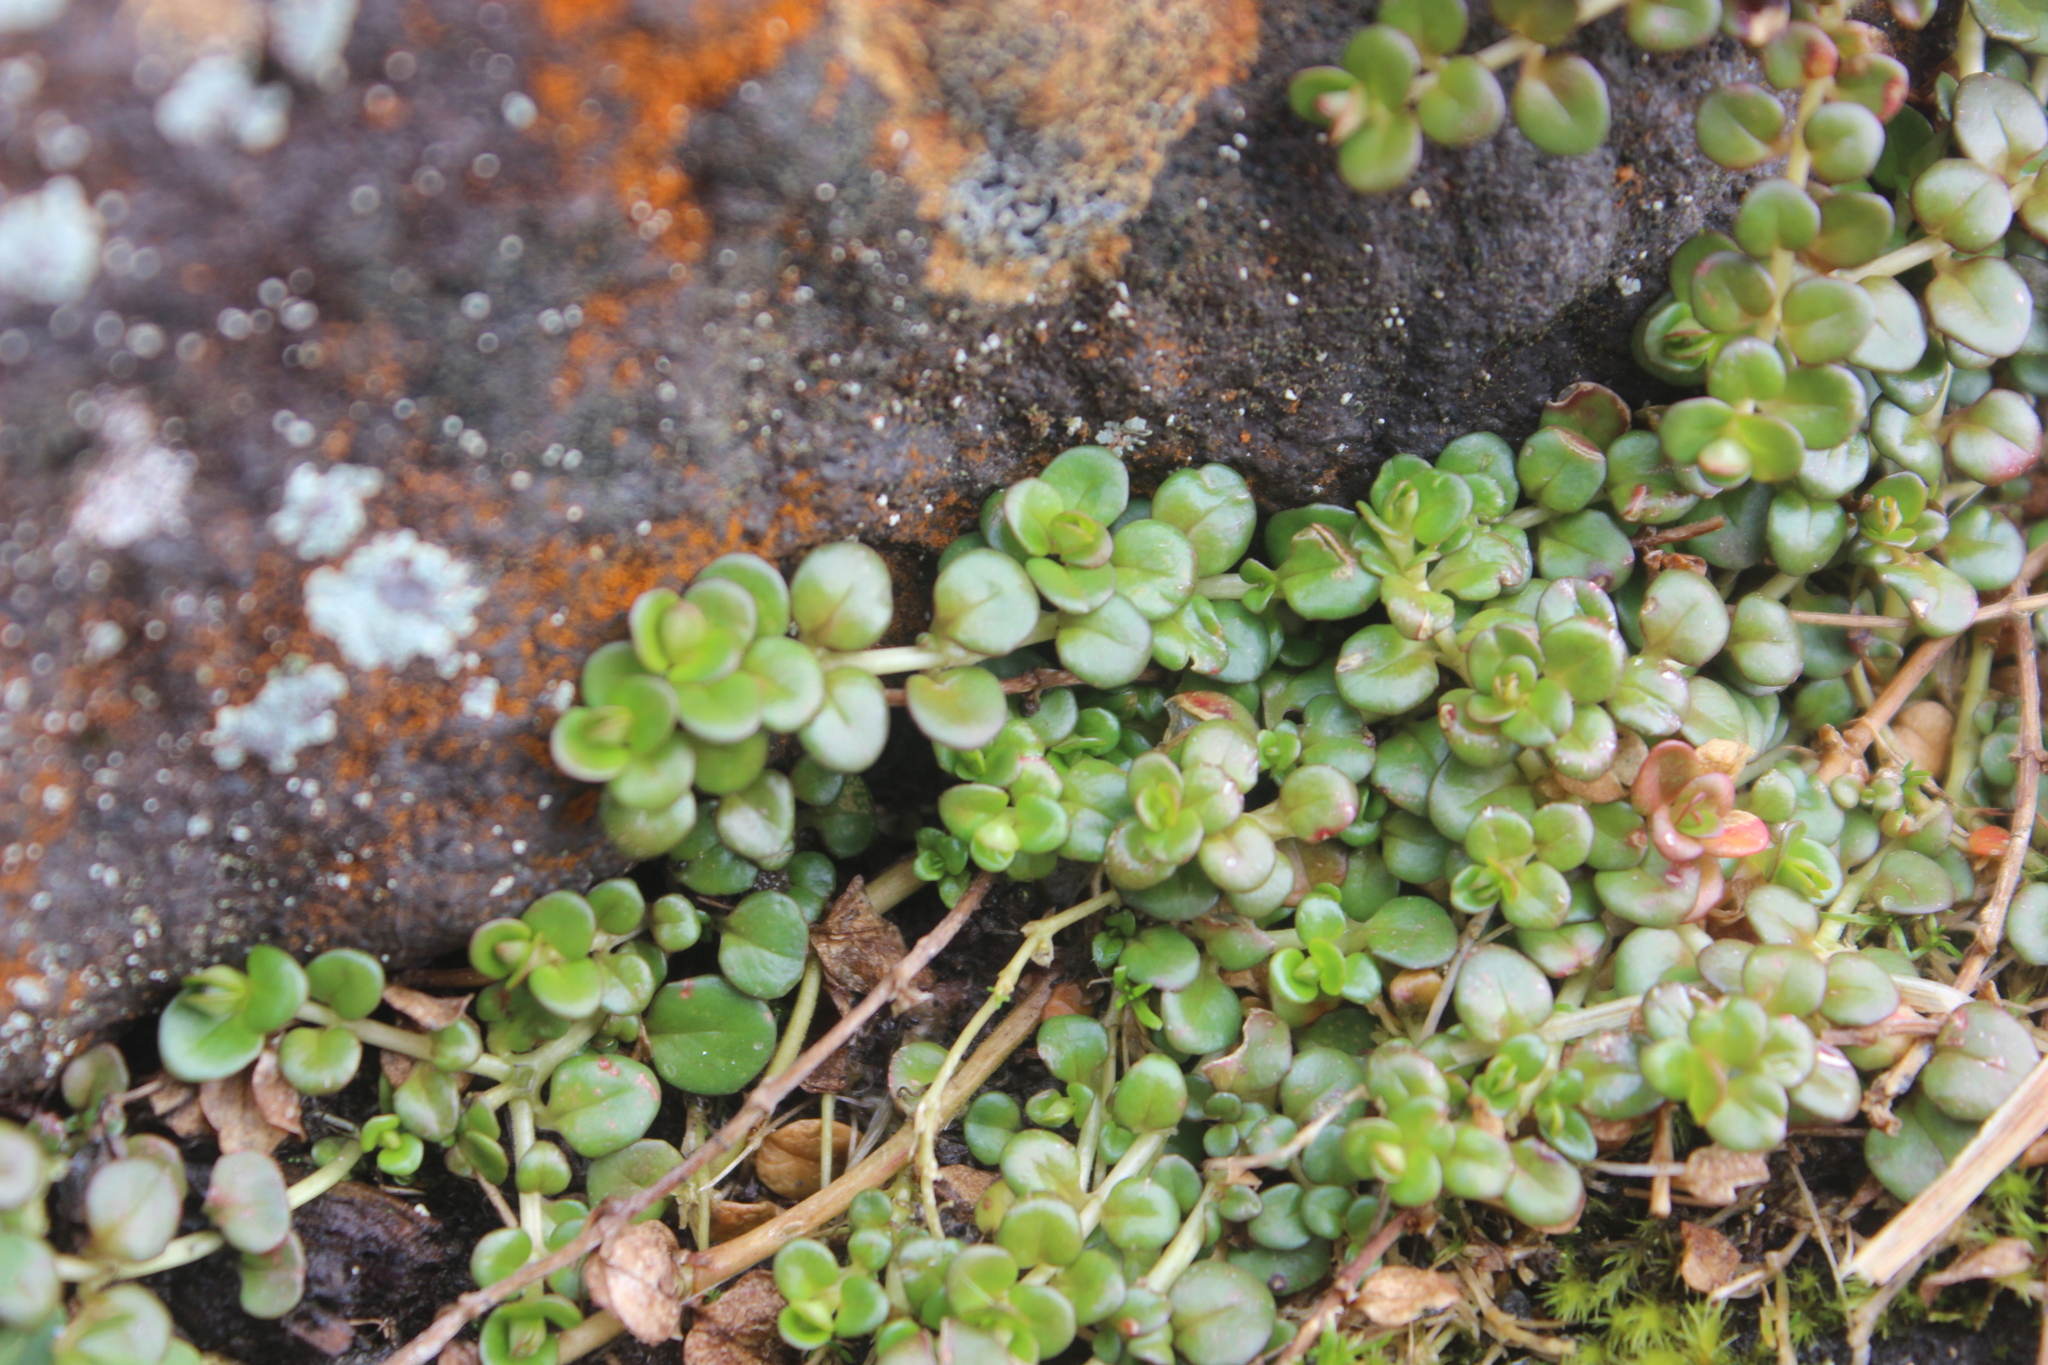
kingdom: Plantae
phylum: Tracheophyta
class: Magnoliopsida
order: Myrtales
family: Onagraceae
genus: Epilobium
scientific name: Epilobium brunnescens
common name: New zealand willowherb
